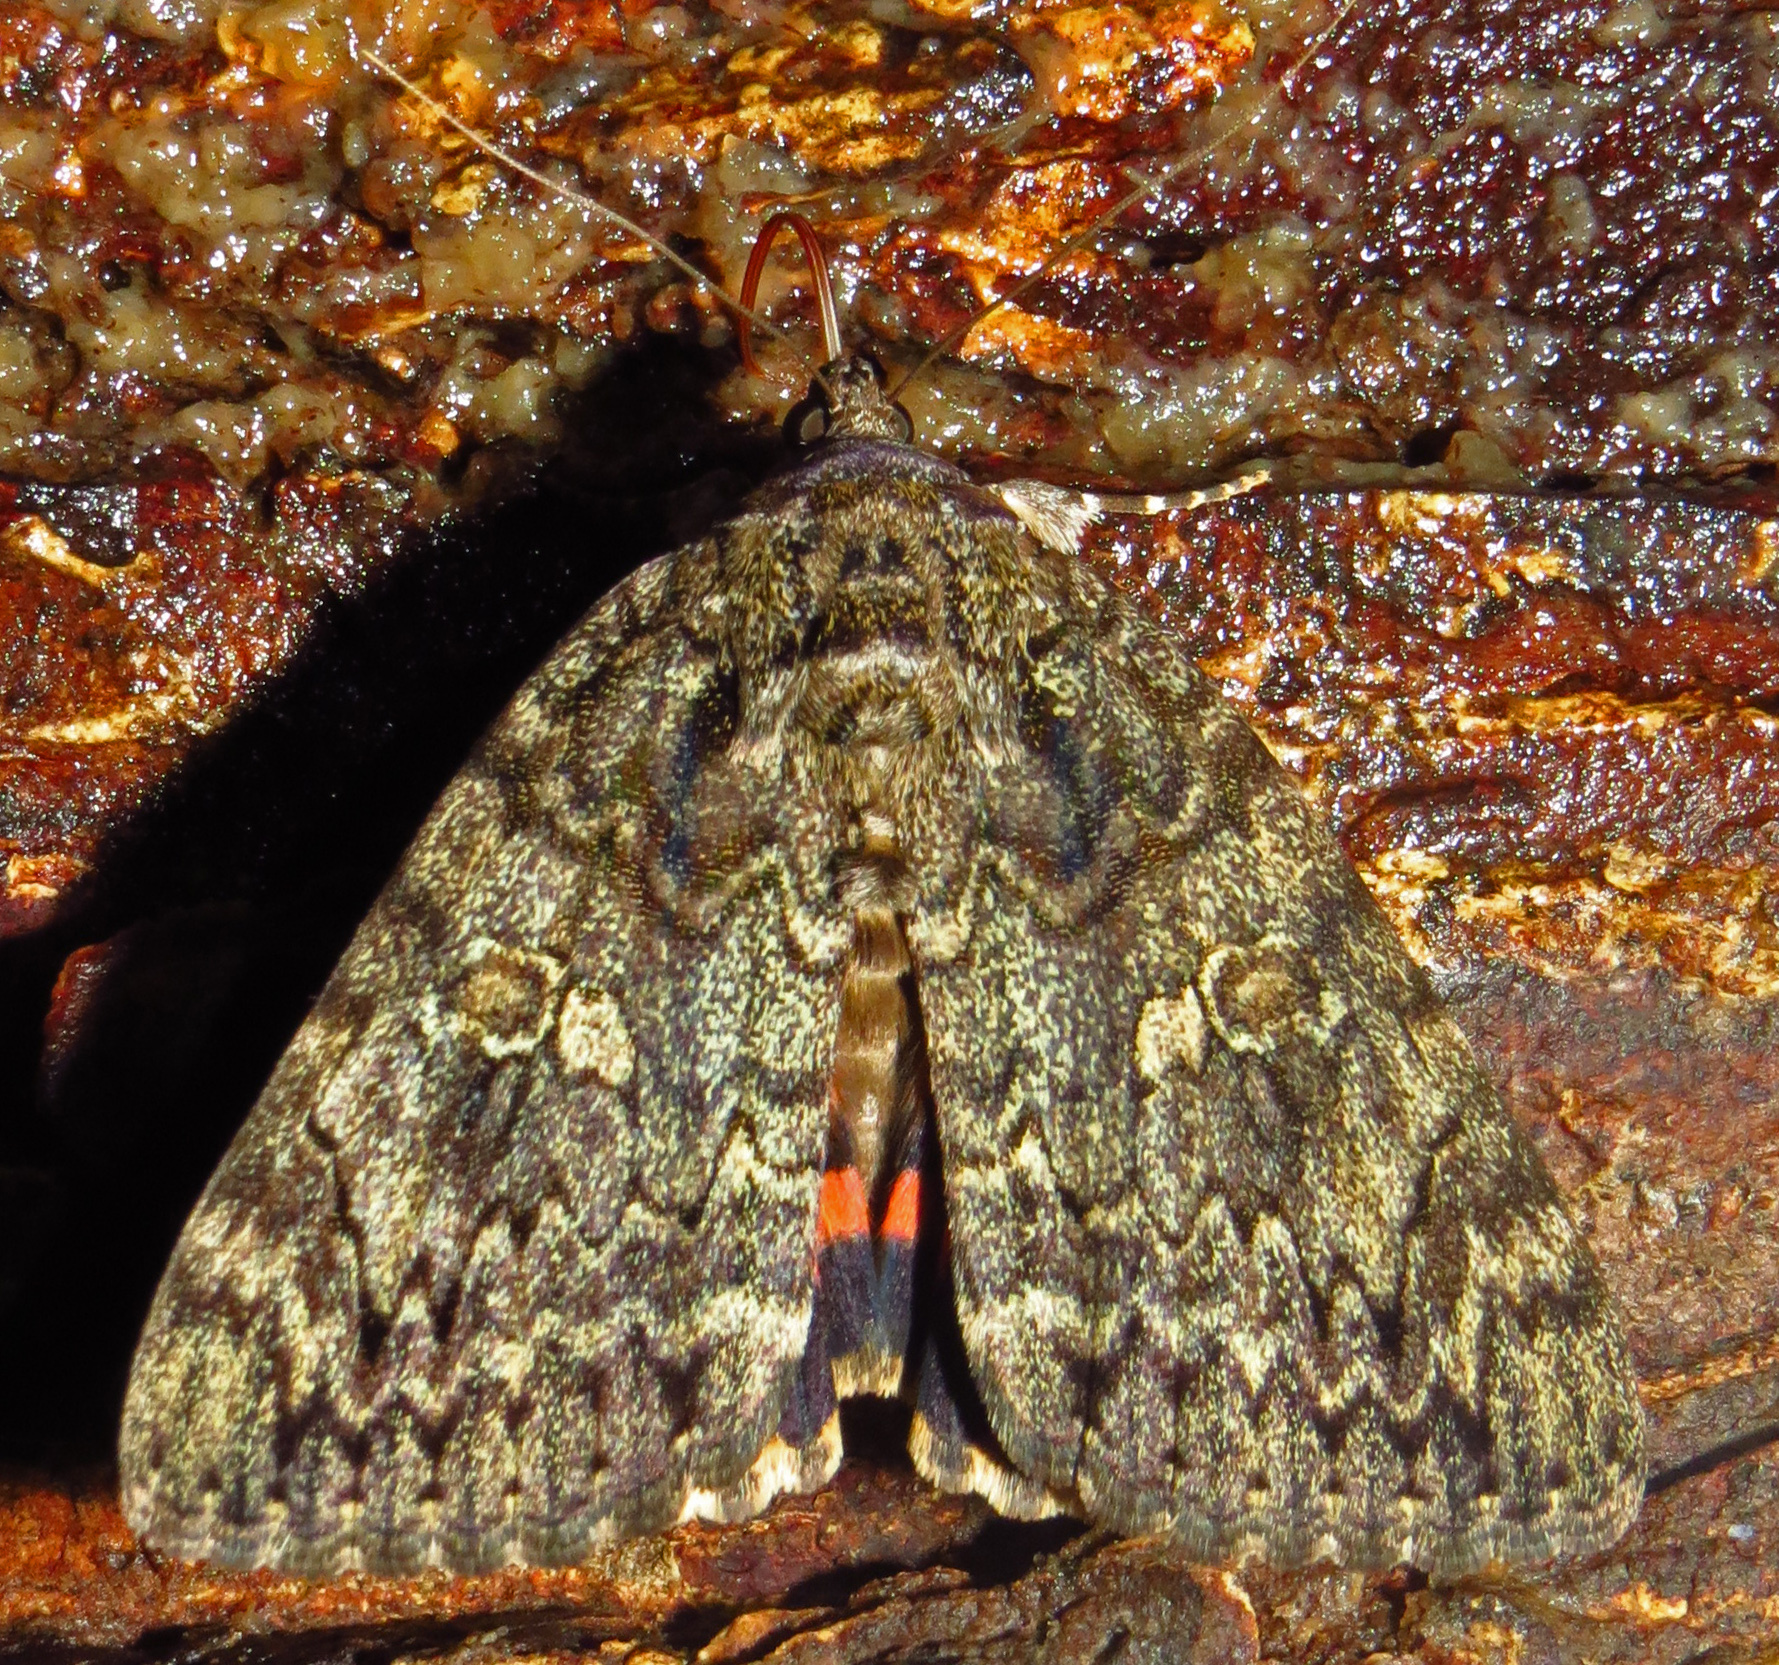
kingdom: Animalia
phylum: Arthropoda
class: Insecta
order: Lepidoptera
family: Erebidae
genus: Catocala
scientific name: Catocala ilia
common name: Ilia underwing
